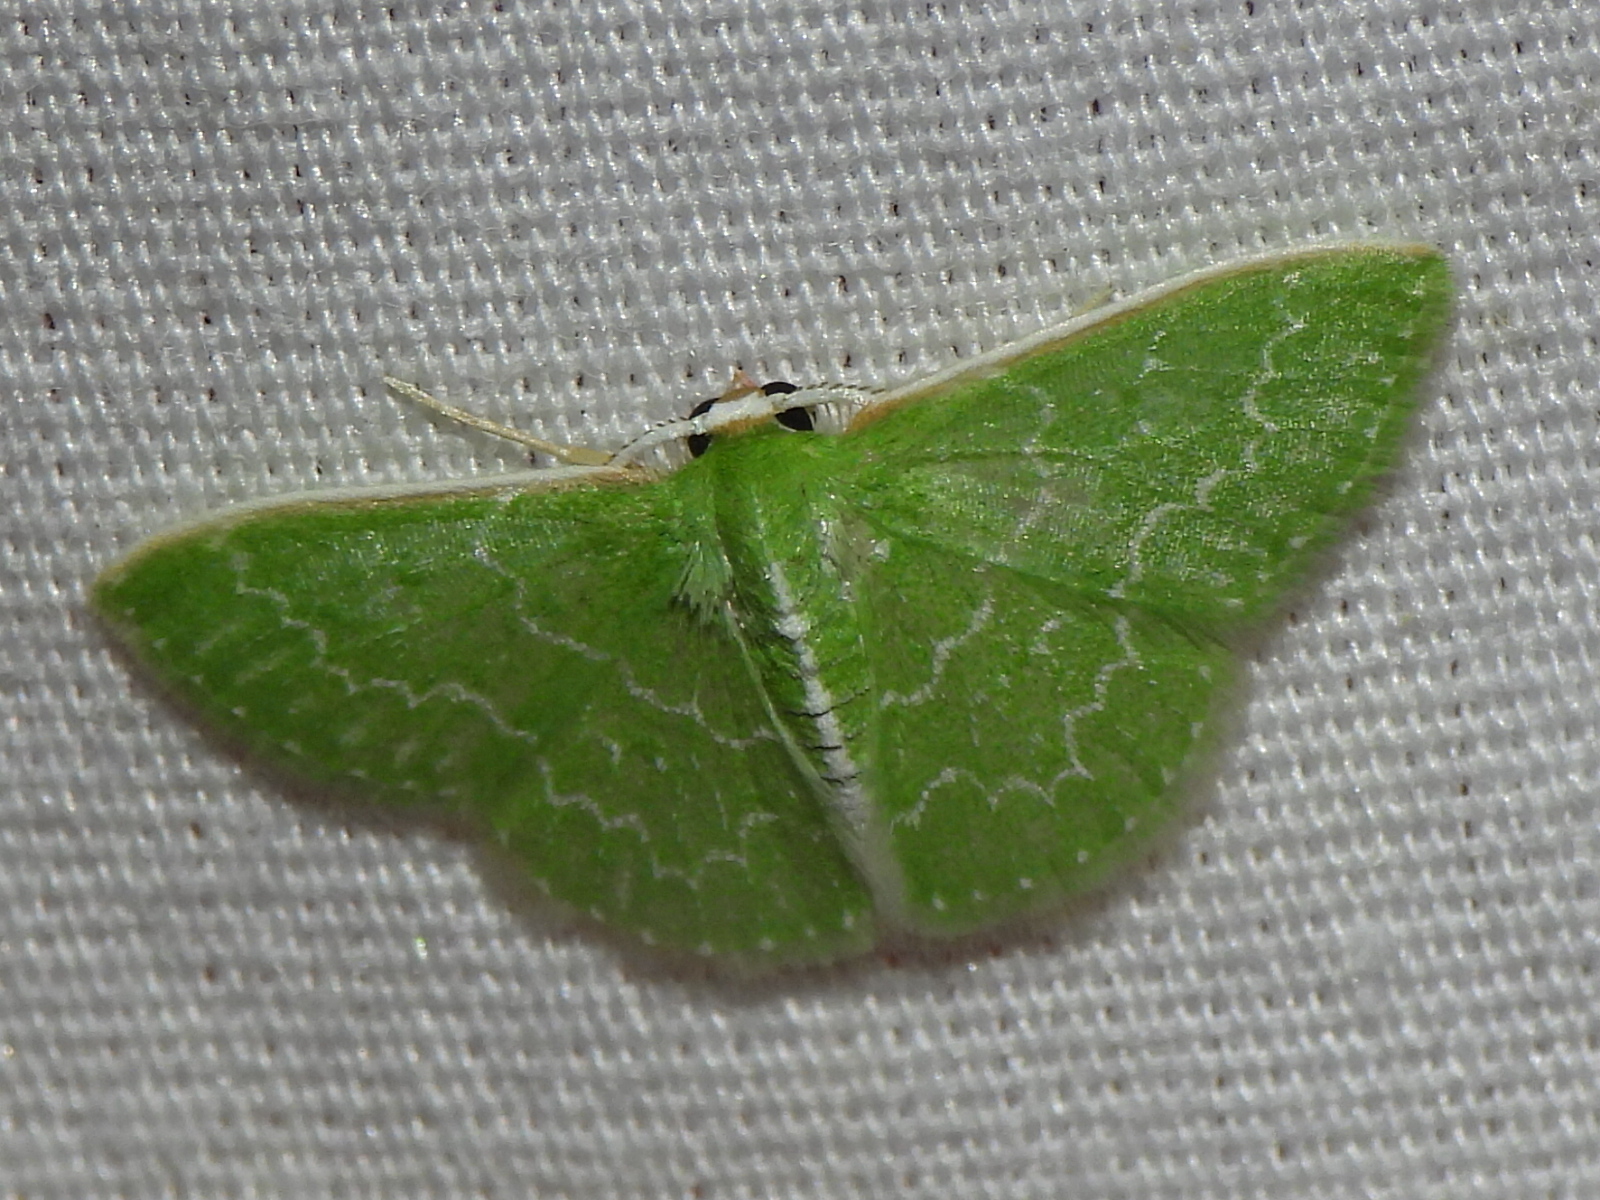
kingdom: Animalia
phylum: Arthropoda
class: Insecta
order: Lepidoptera
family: Geometridae
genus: Synchlora
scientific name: Synchlora frondaria
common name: Southern emerald
